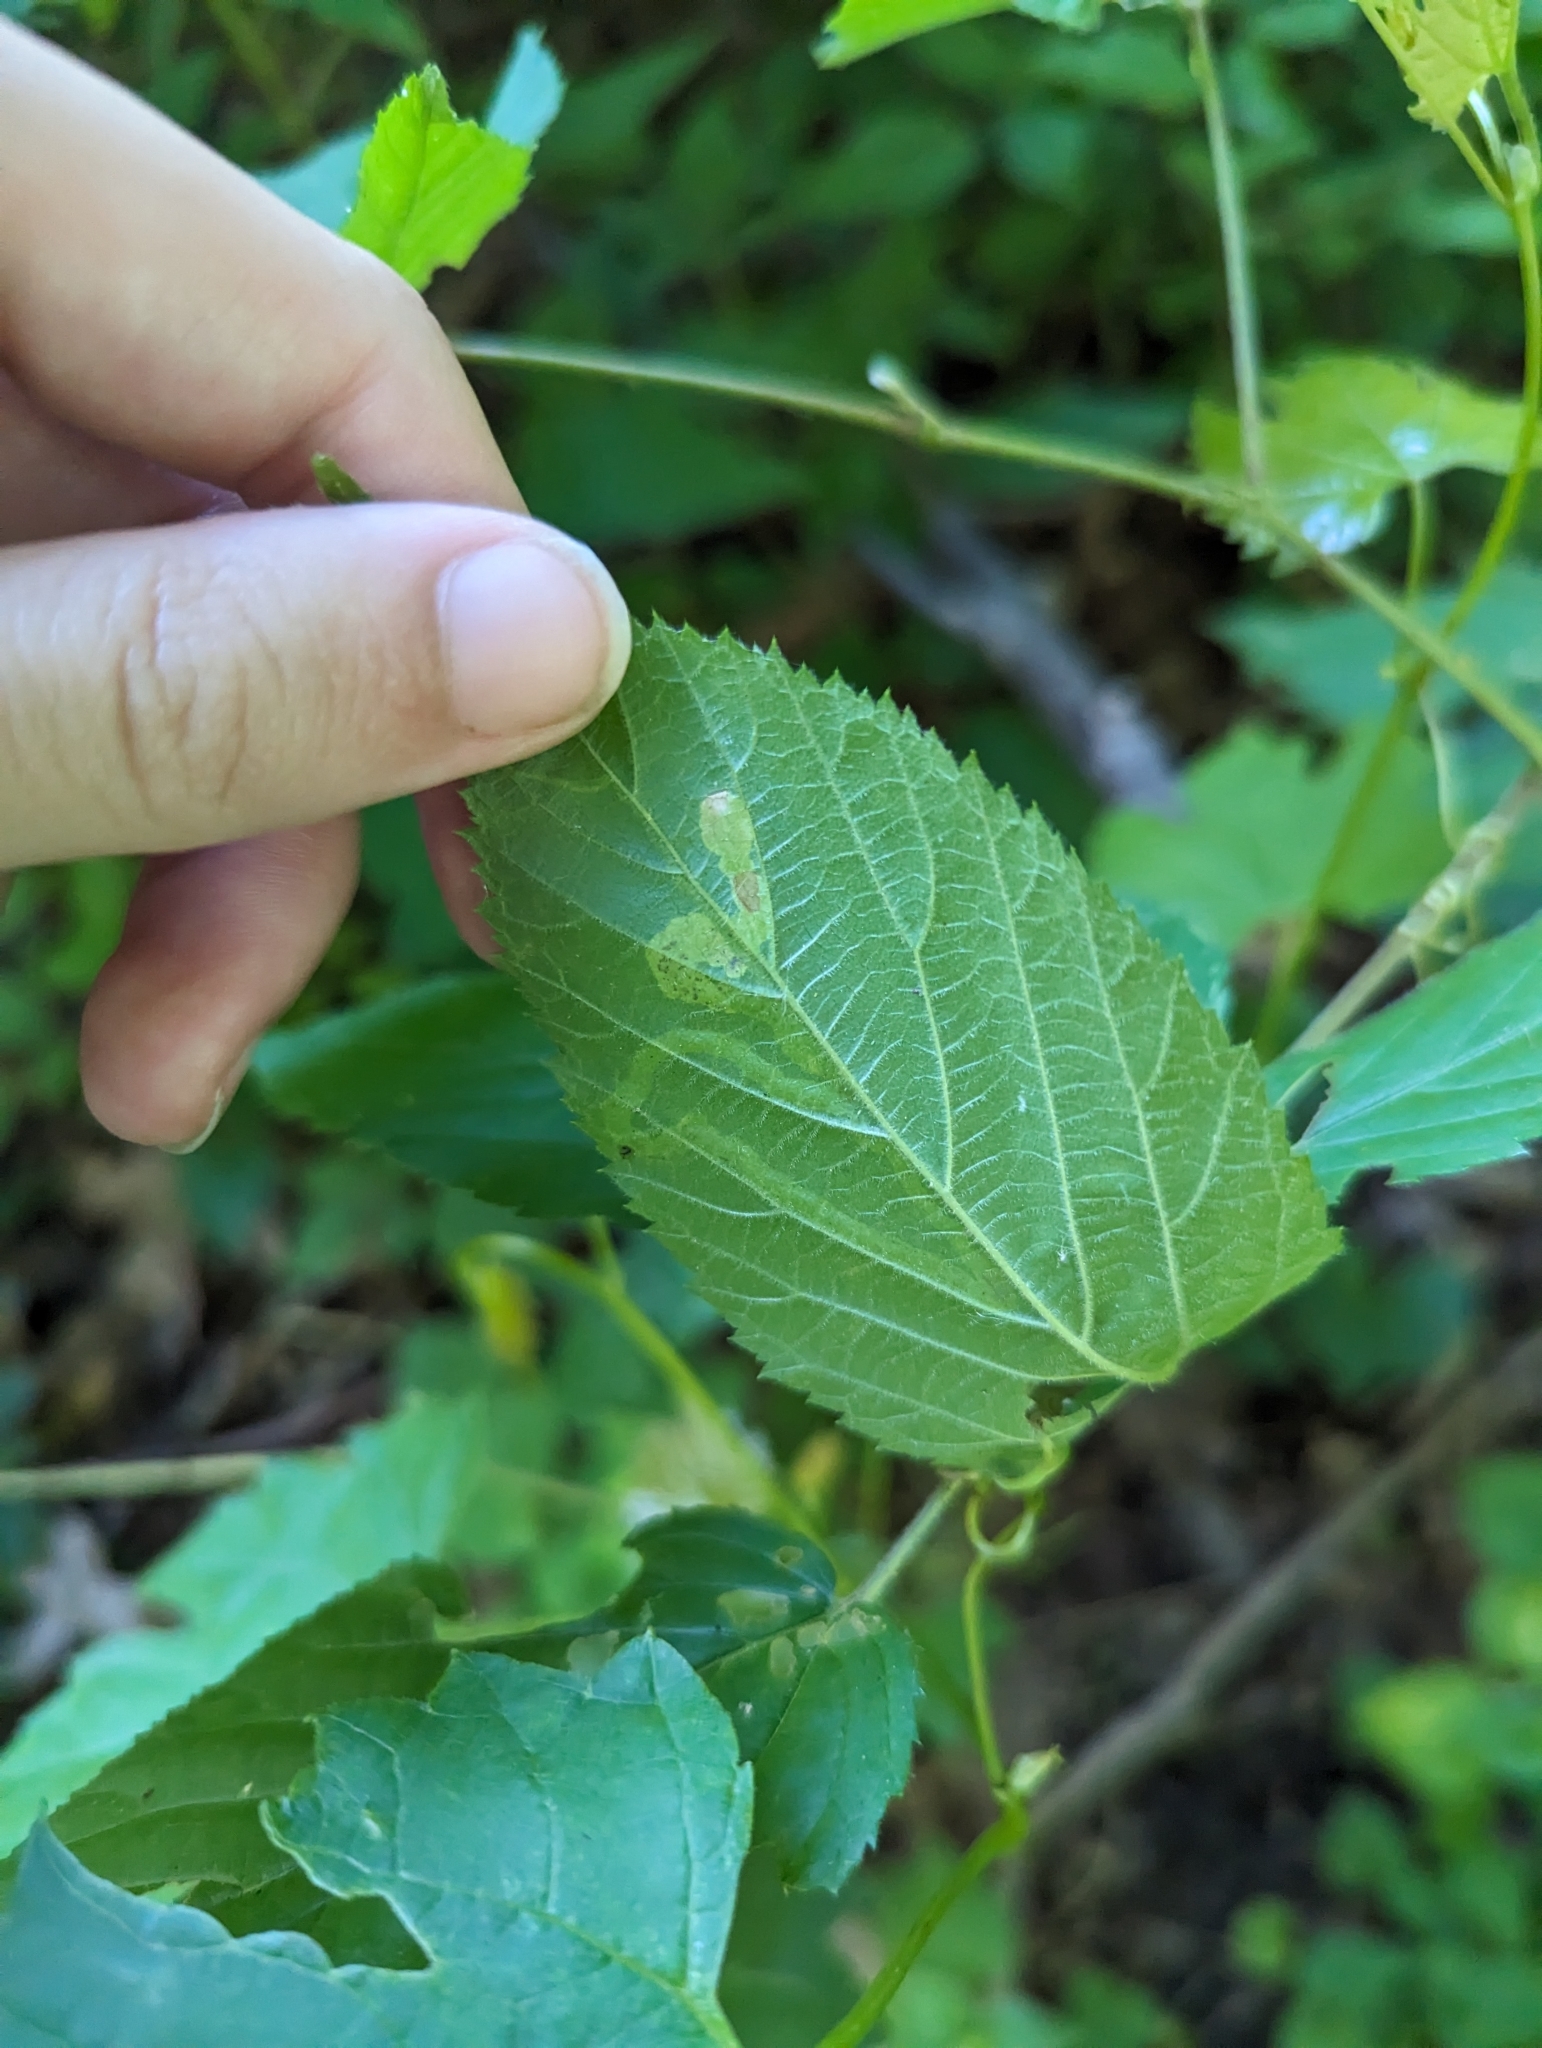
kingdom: Animalia
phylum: Arthropoda
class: Insecta
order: Diptera
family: Agromyzidae
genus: Agromyza
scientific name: Agromyza vockerothi
